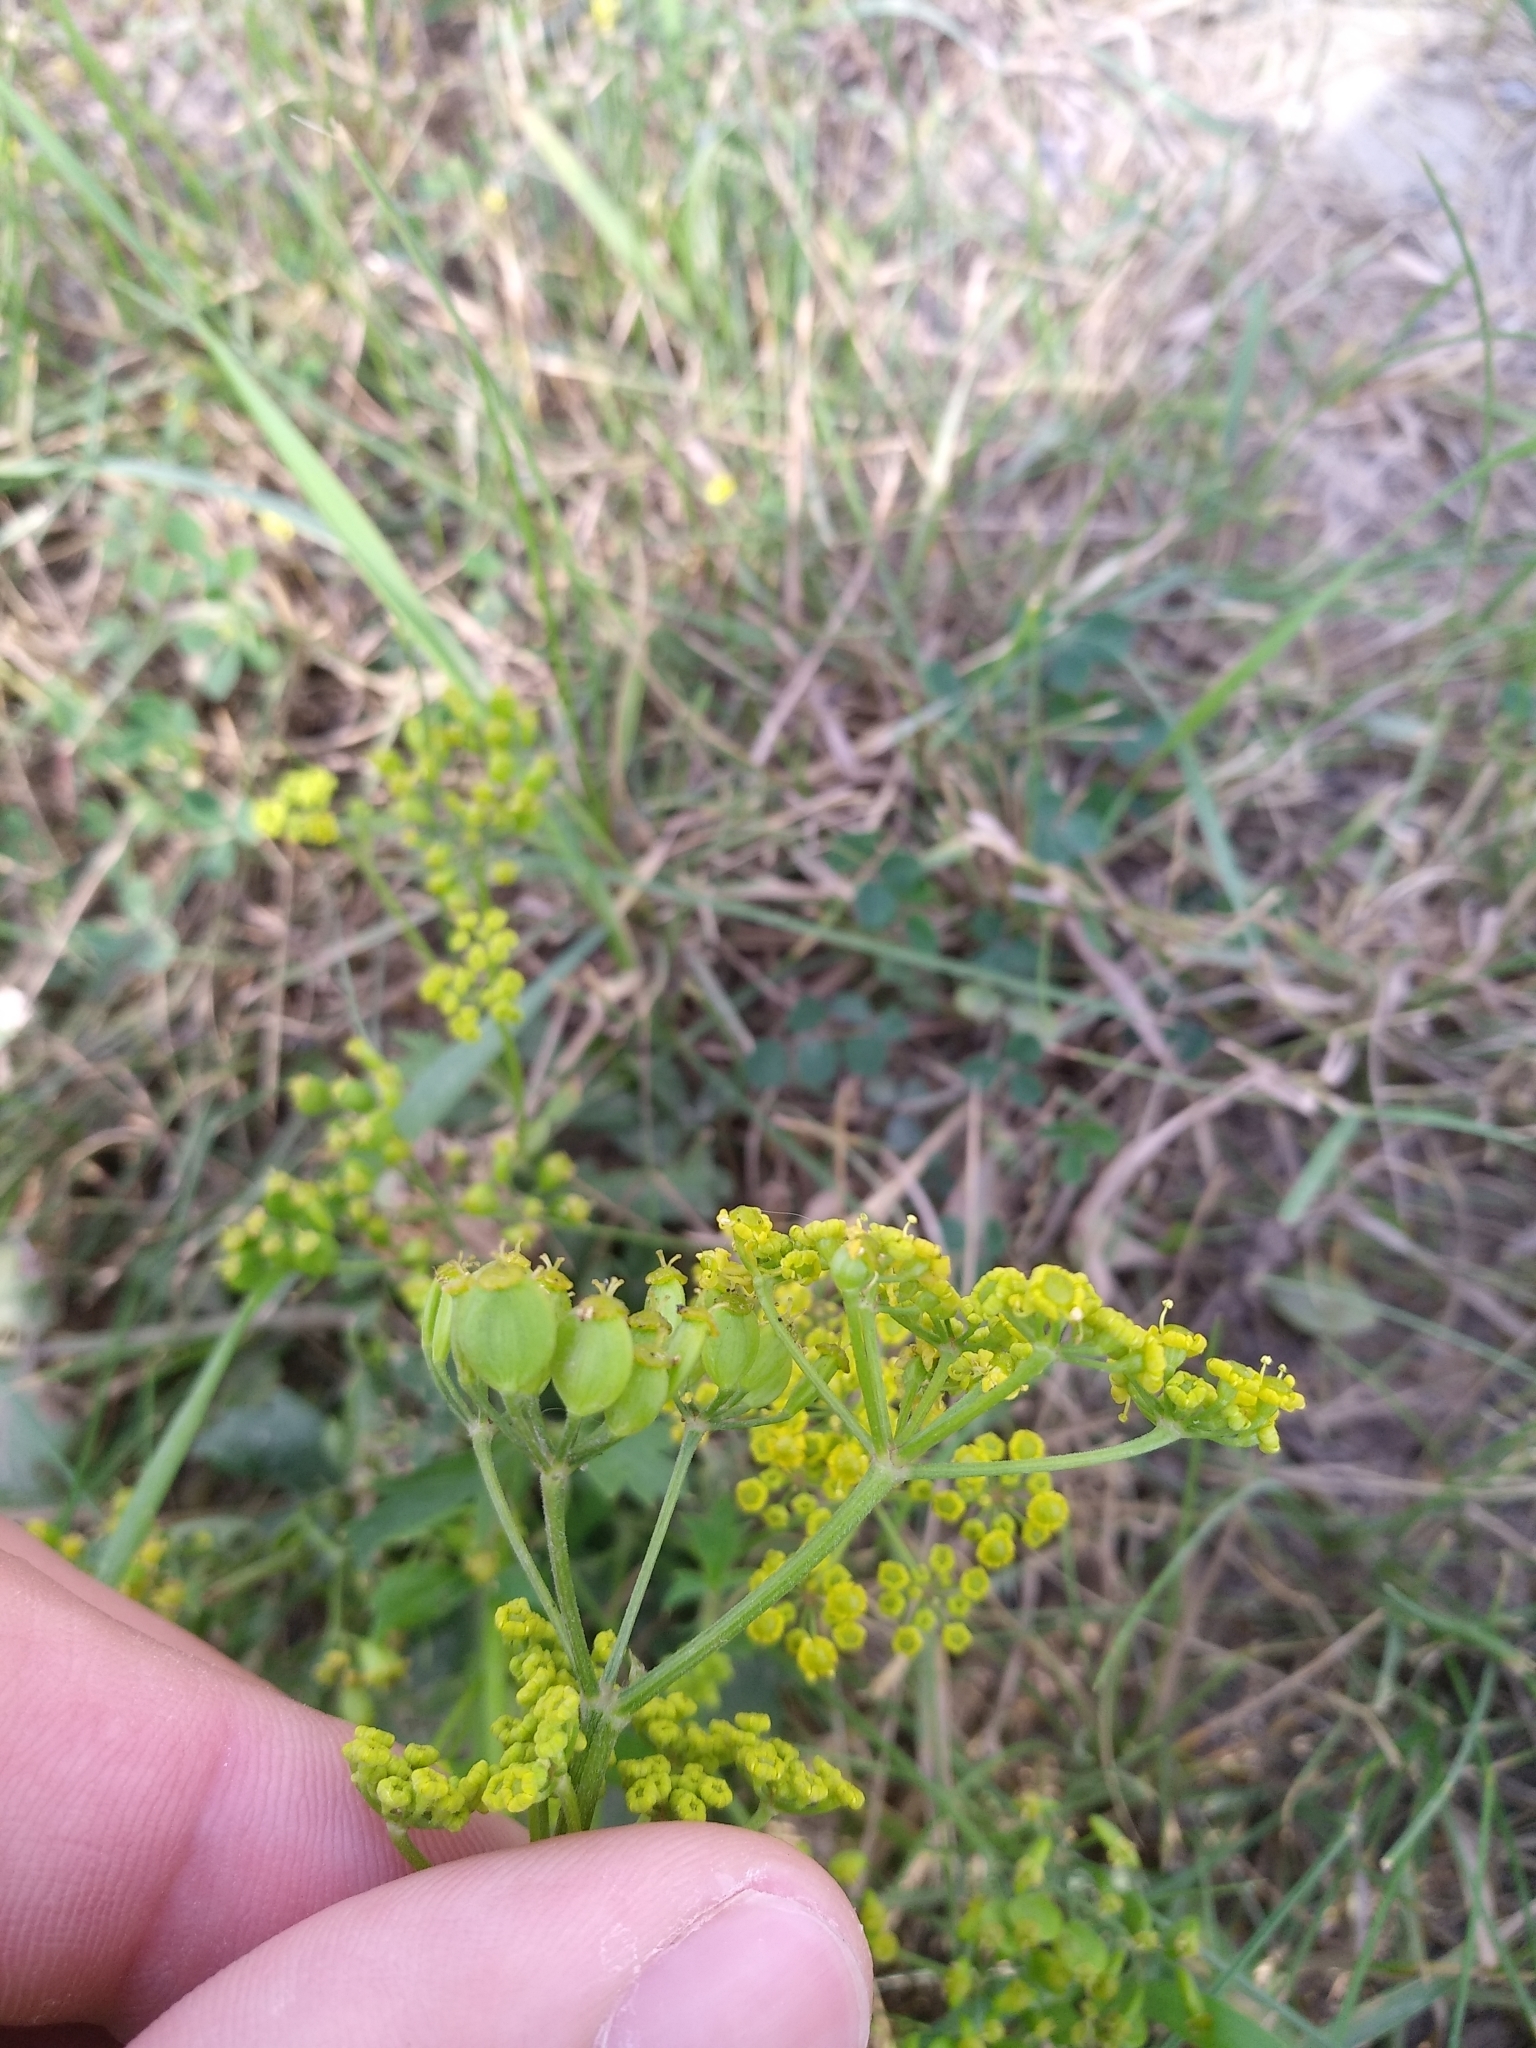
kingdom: Plantae
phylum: Tracheophyta
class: Magnoliopsida
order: Apiales
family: Apiaceae
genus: Pastinaca
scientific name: Pastinaca sativa
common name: Wild parsnip
